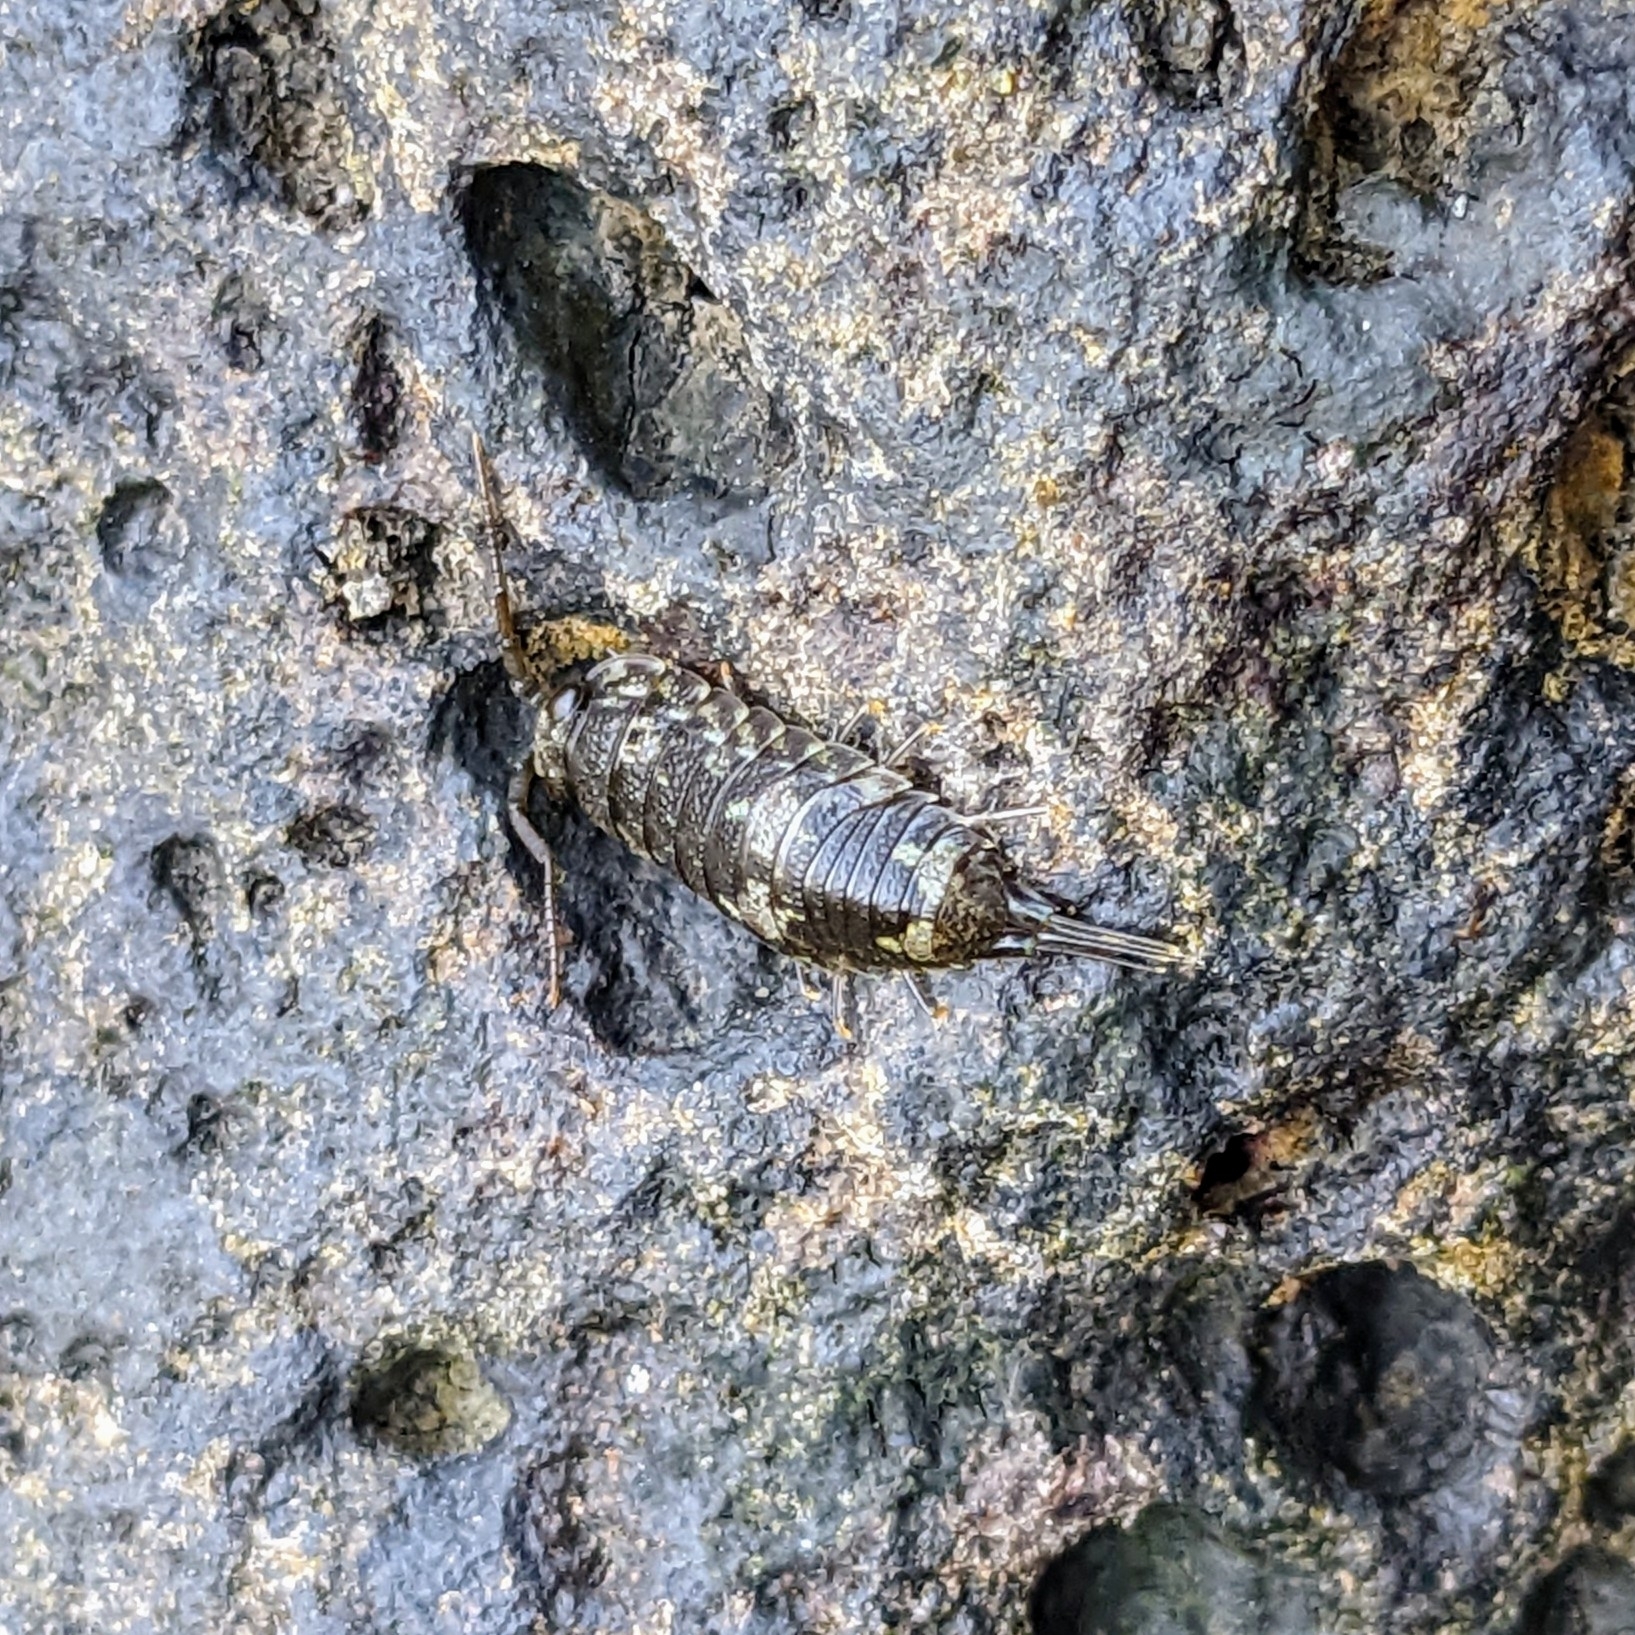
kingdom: Animalia
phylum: Arthropoda
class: Malacostraca
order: Isopoda
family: Ligiidae
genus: Ligia
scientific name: Ligia oceanica
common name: Sea slater
